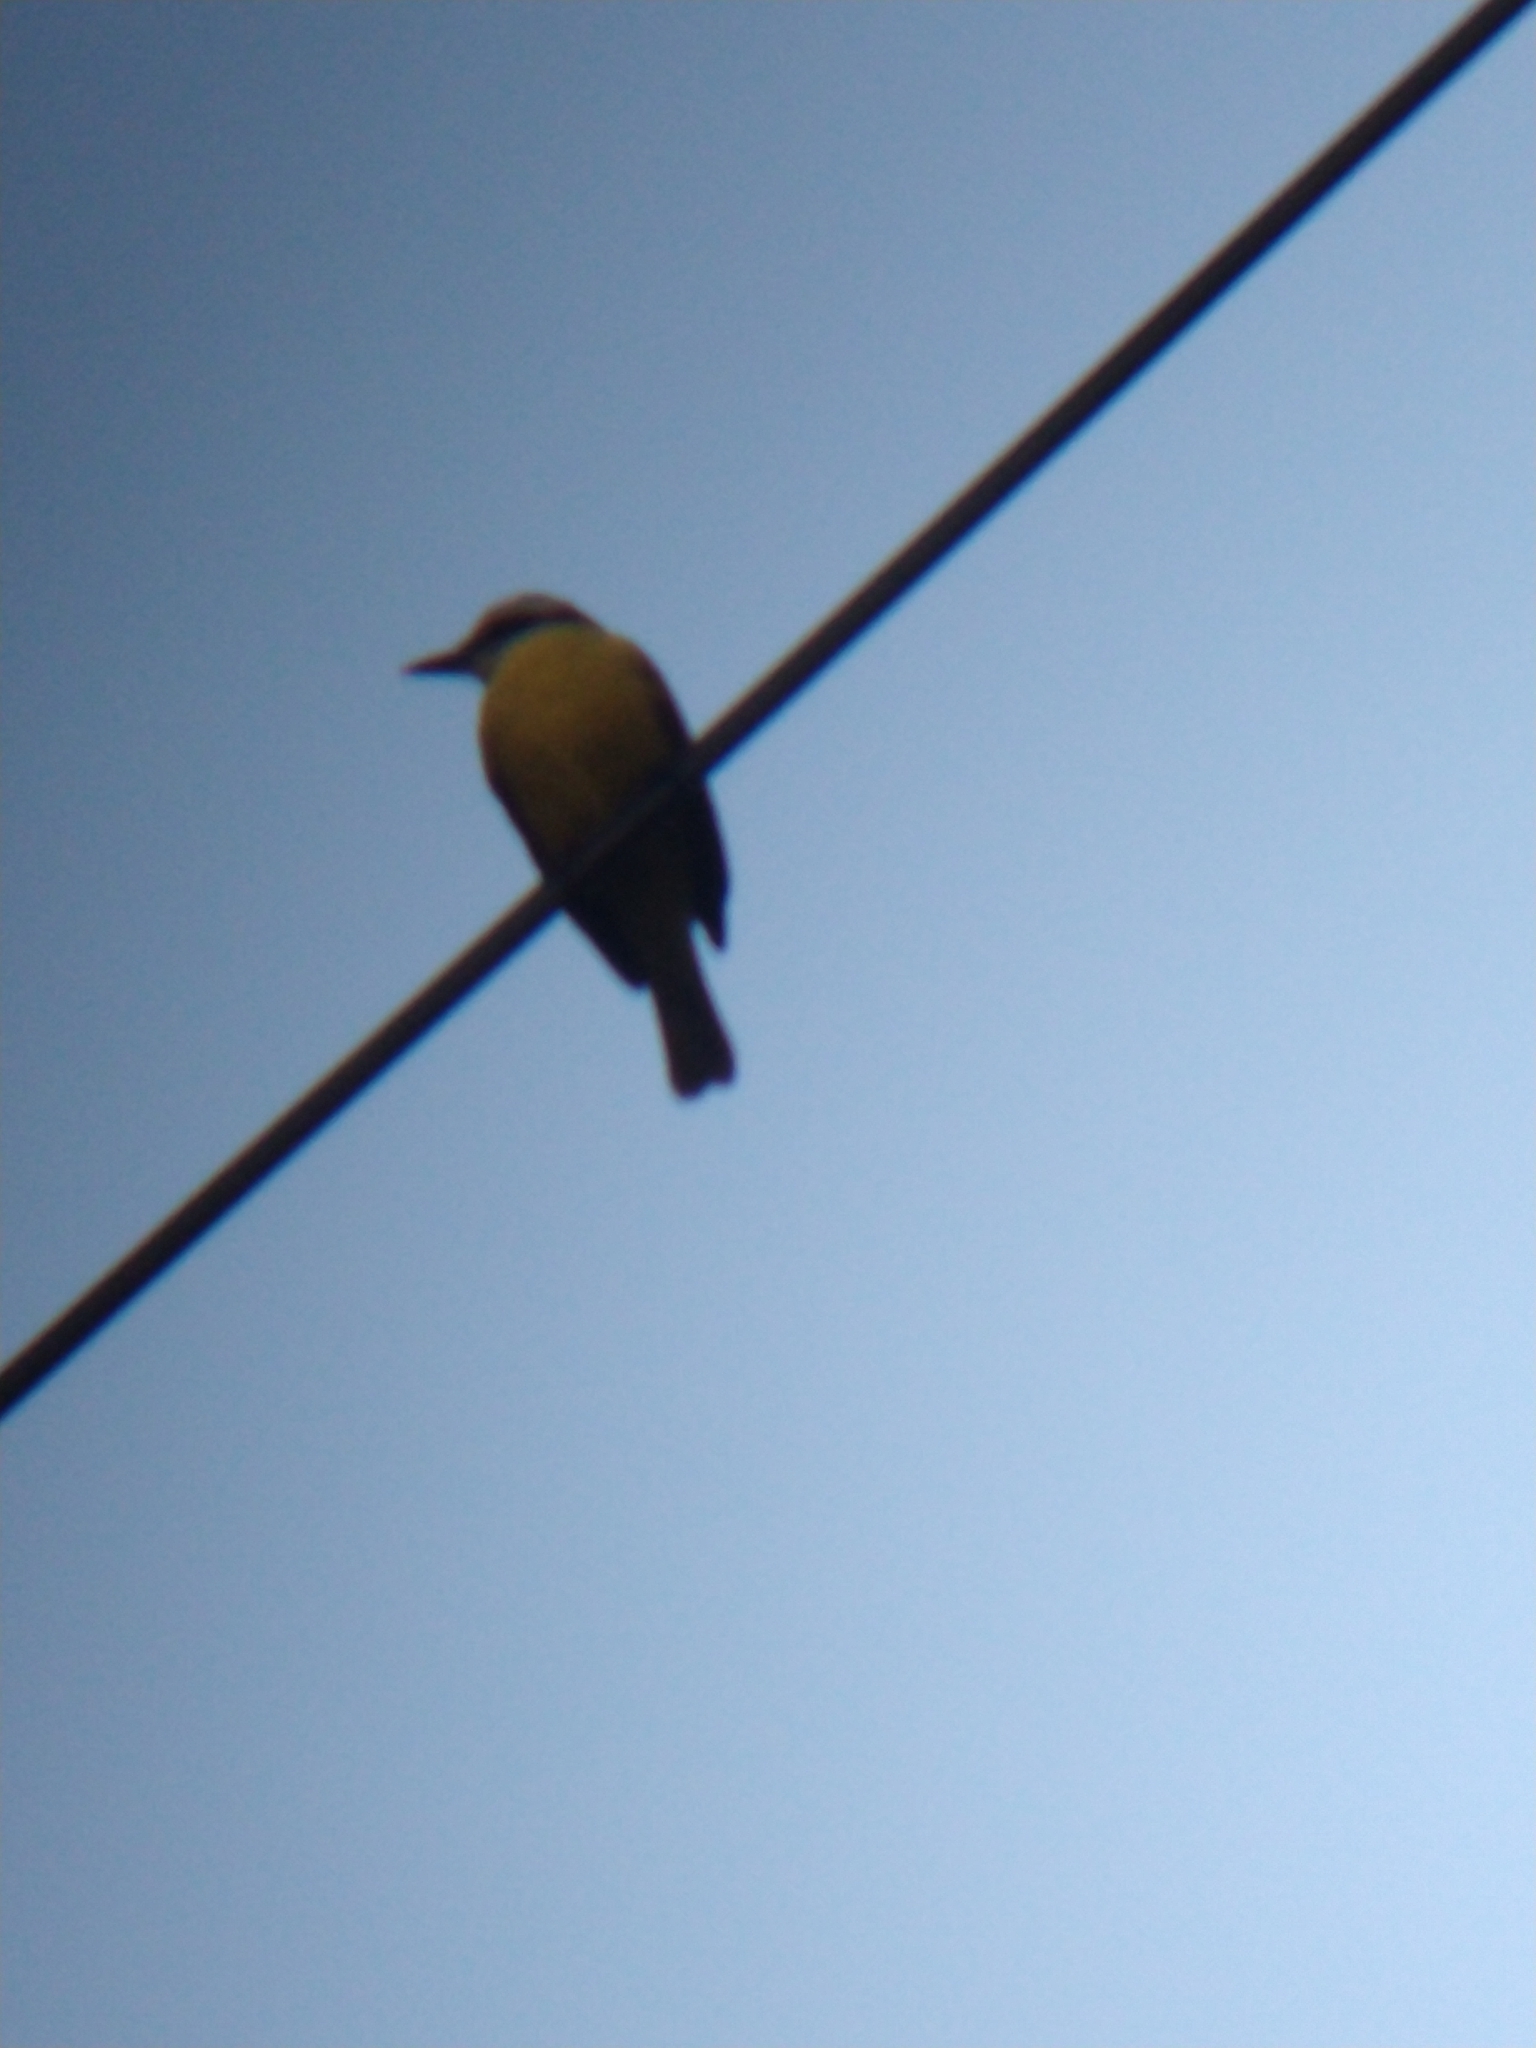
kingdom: Animalia
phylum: Chordata
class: Aves
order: Passeriformes
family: Tyrannidae
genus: Pitangus
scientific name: Pitangus sulphuratus
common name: Great kiskadee
